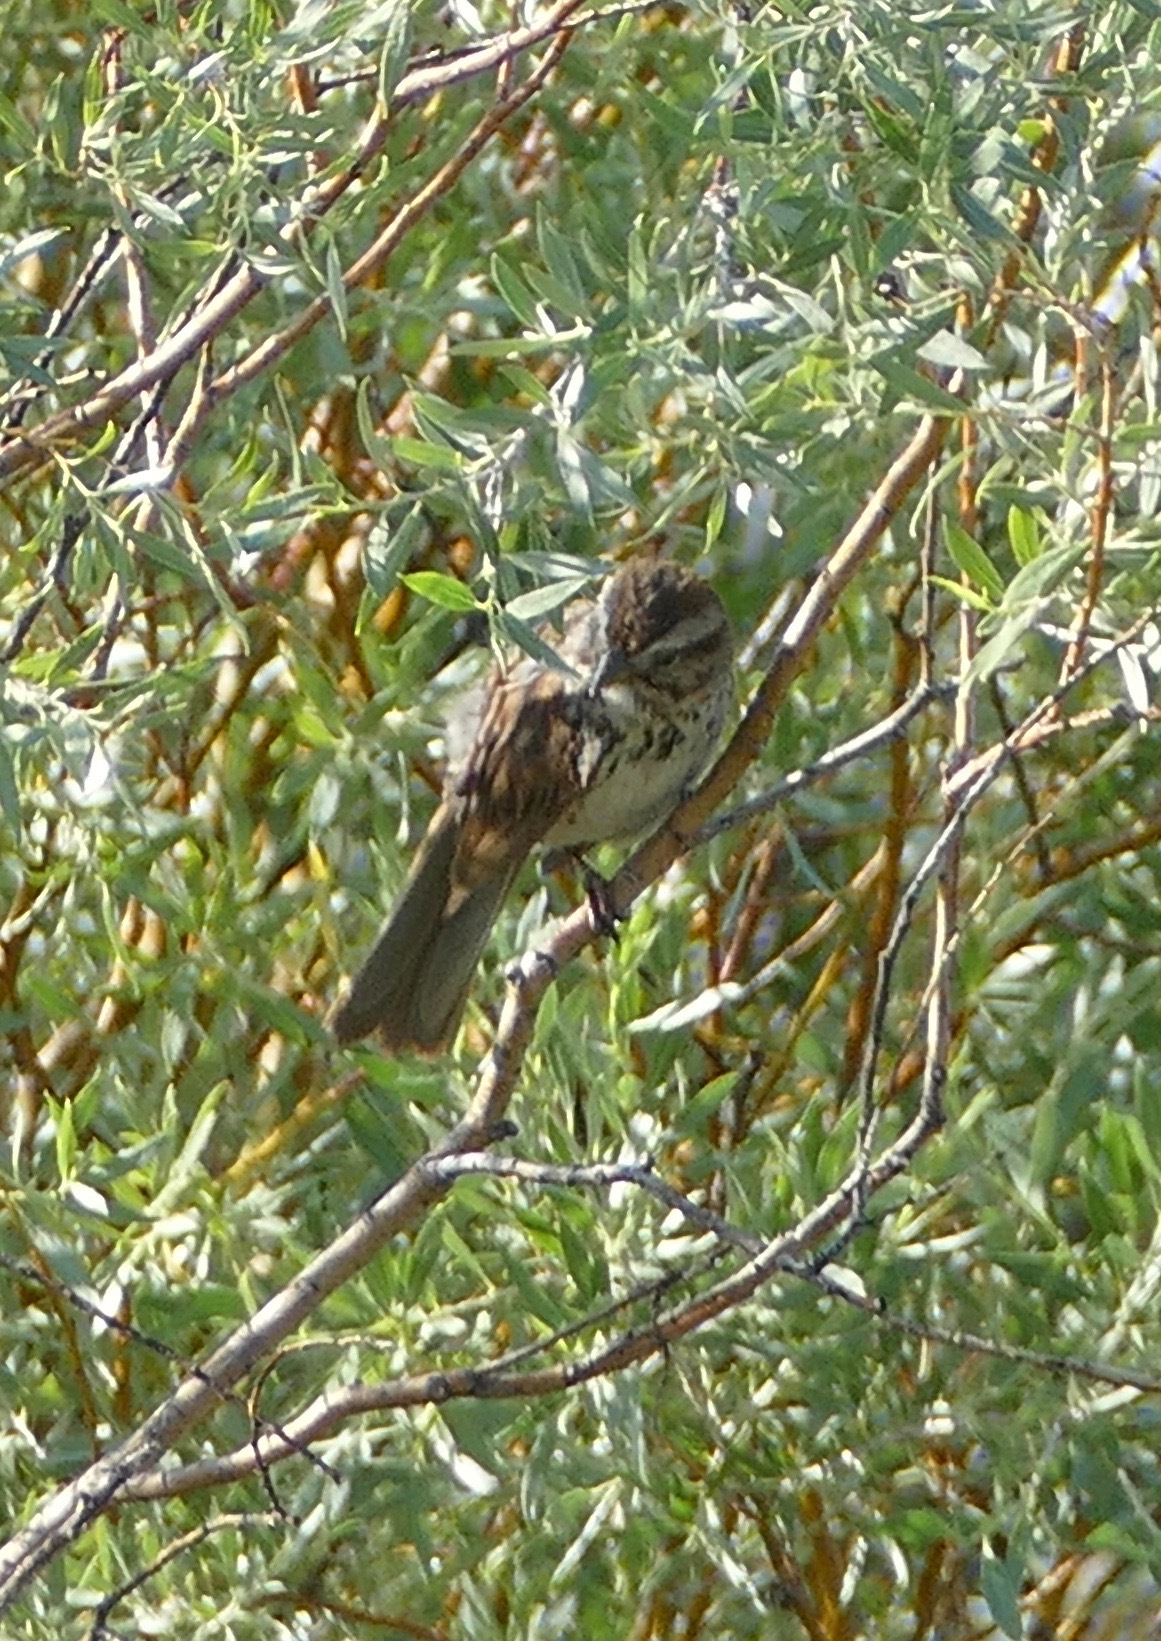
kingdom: Animalia
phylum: Chordata
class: Aves
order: Passeriformes
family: Passerellidae
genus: Melospiza
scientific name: Melospiza melodia
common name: Song sparrow
